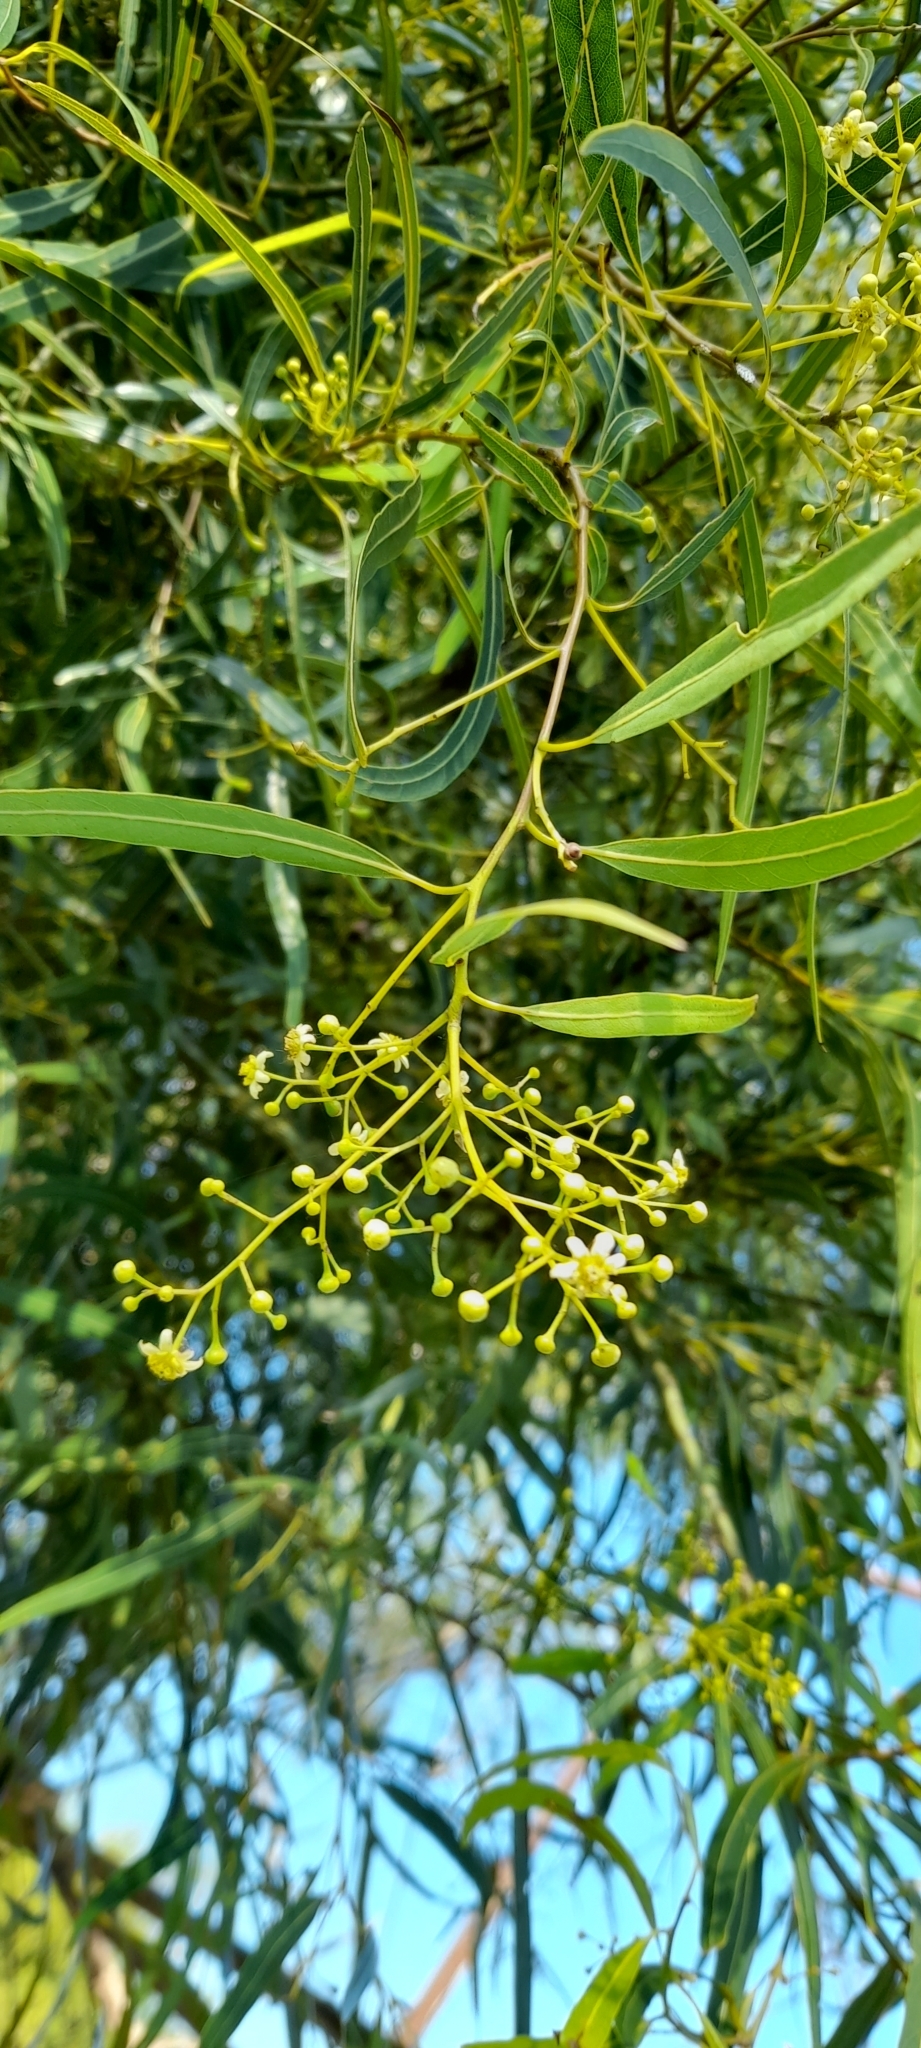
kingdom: Plantae
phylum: Tracheophyta
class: Magnoliopsida
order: Laurales
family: Lauraceae
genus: Nectandra
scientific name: Nectandra angustifolia
